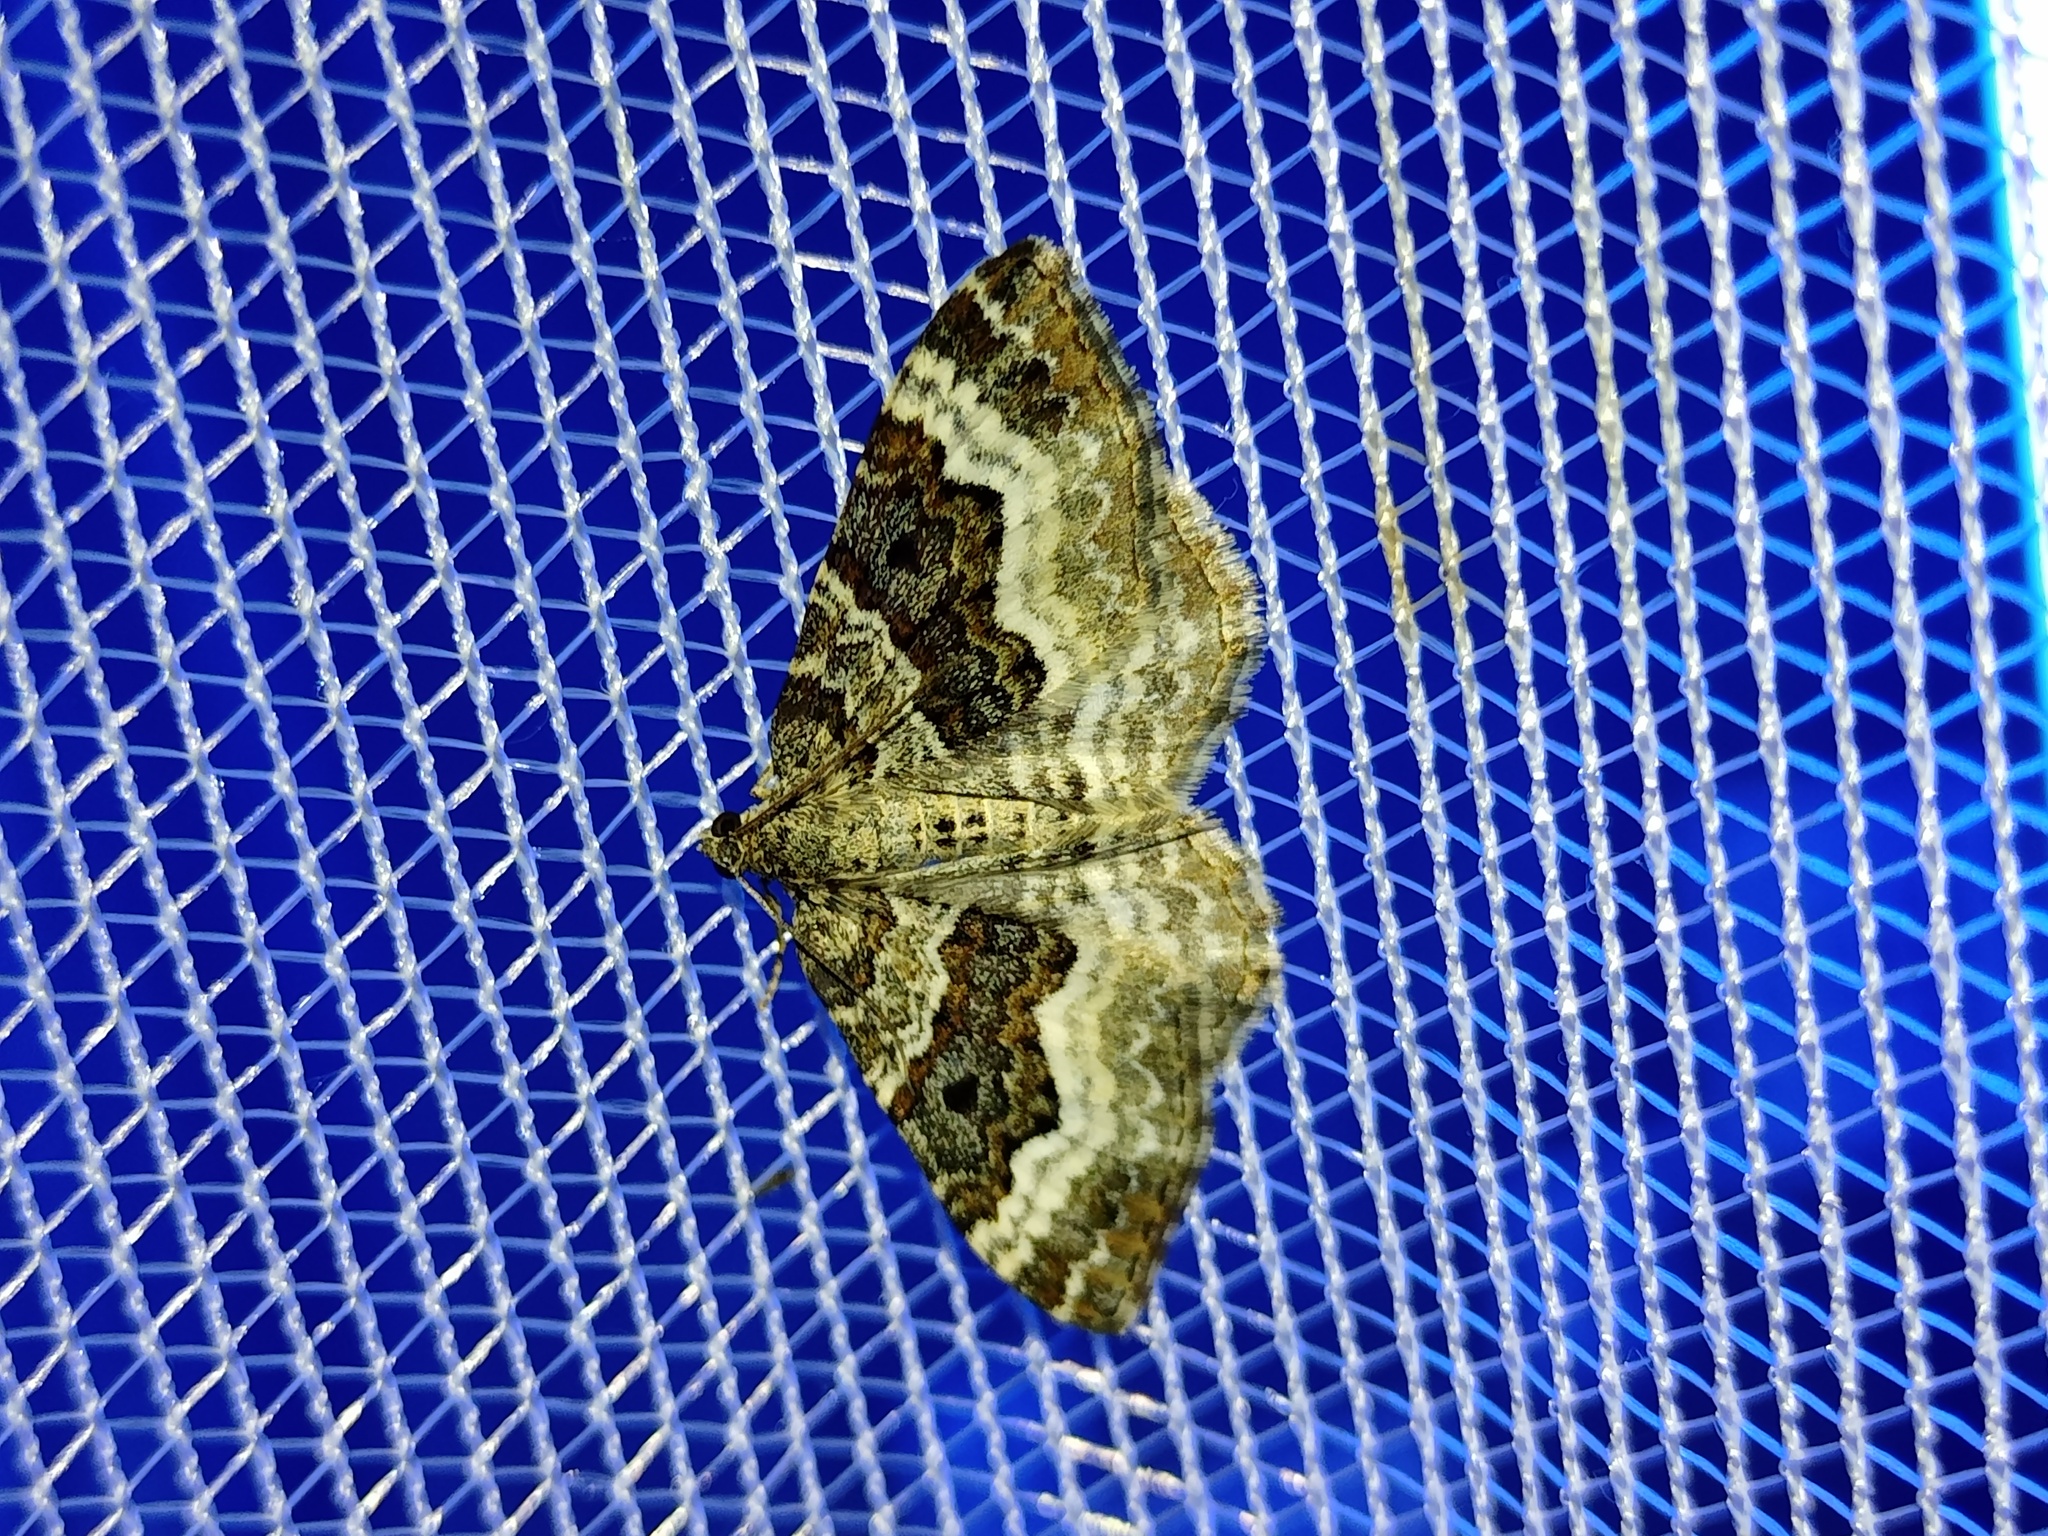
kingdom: Animalia
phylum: Arthropoda
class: Insecta
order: Lepidoptera
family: Geometridae
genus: Epirrhoe
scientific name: Epirrhoe alternata
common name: Common carpet
